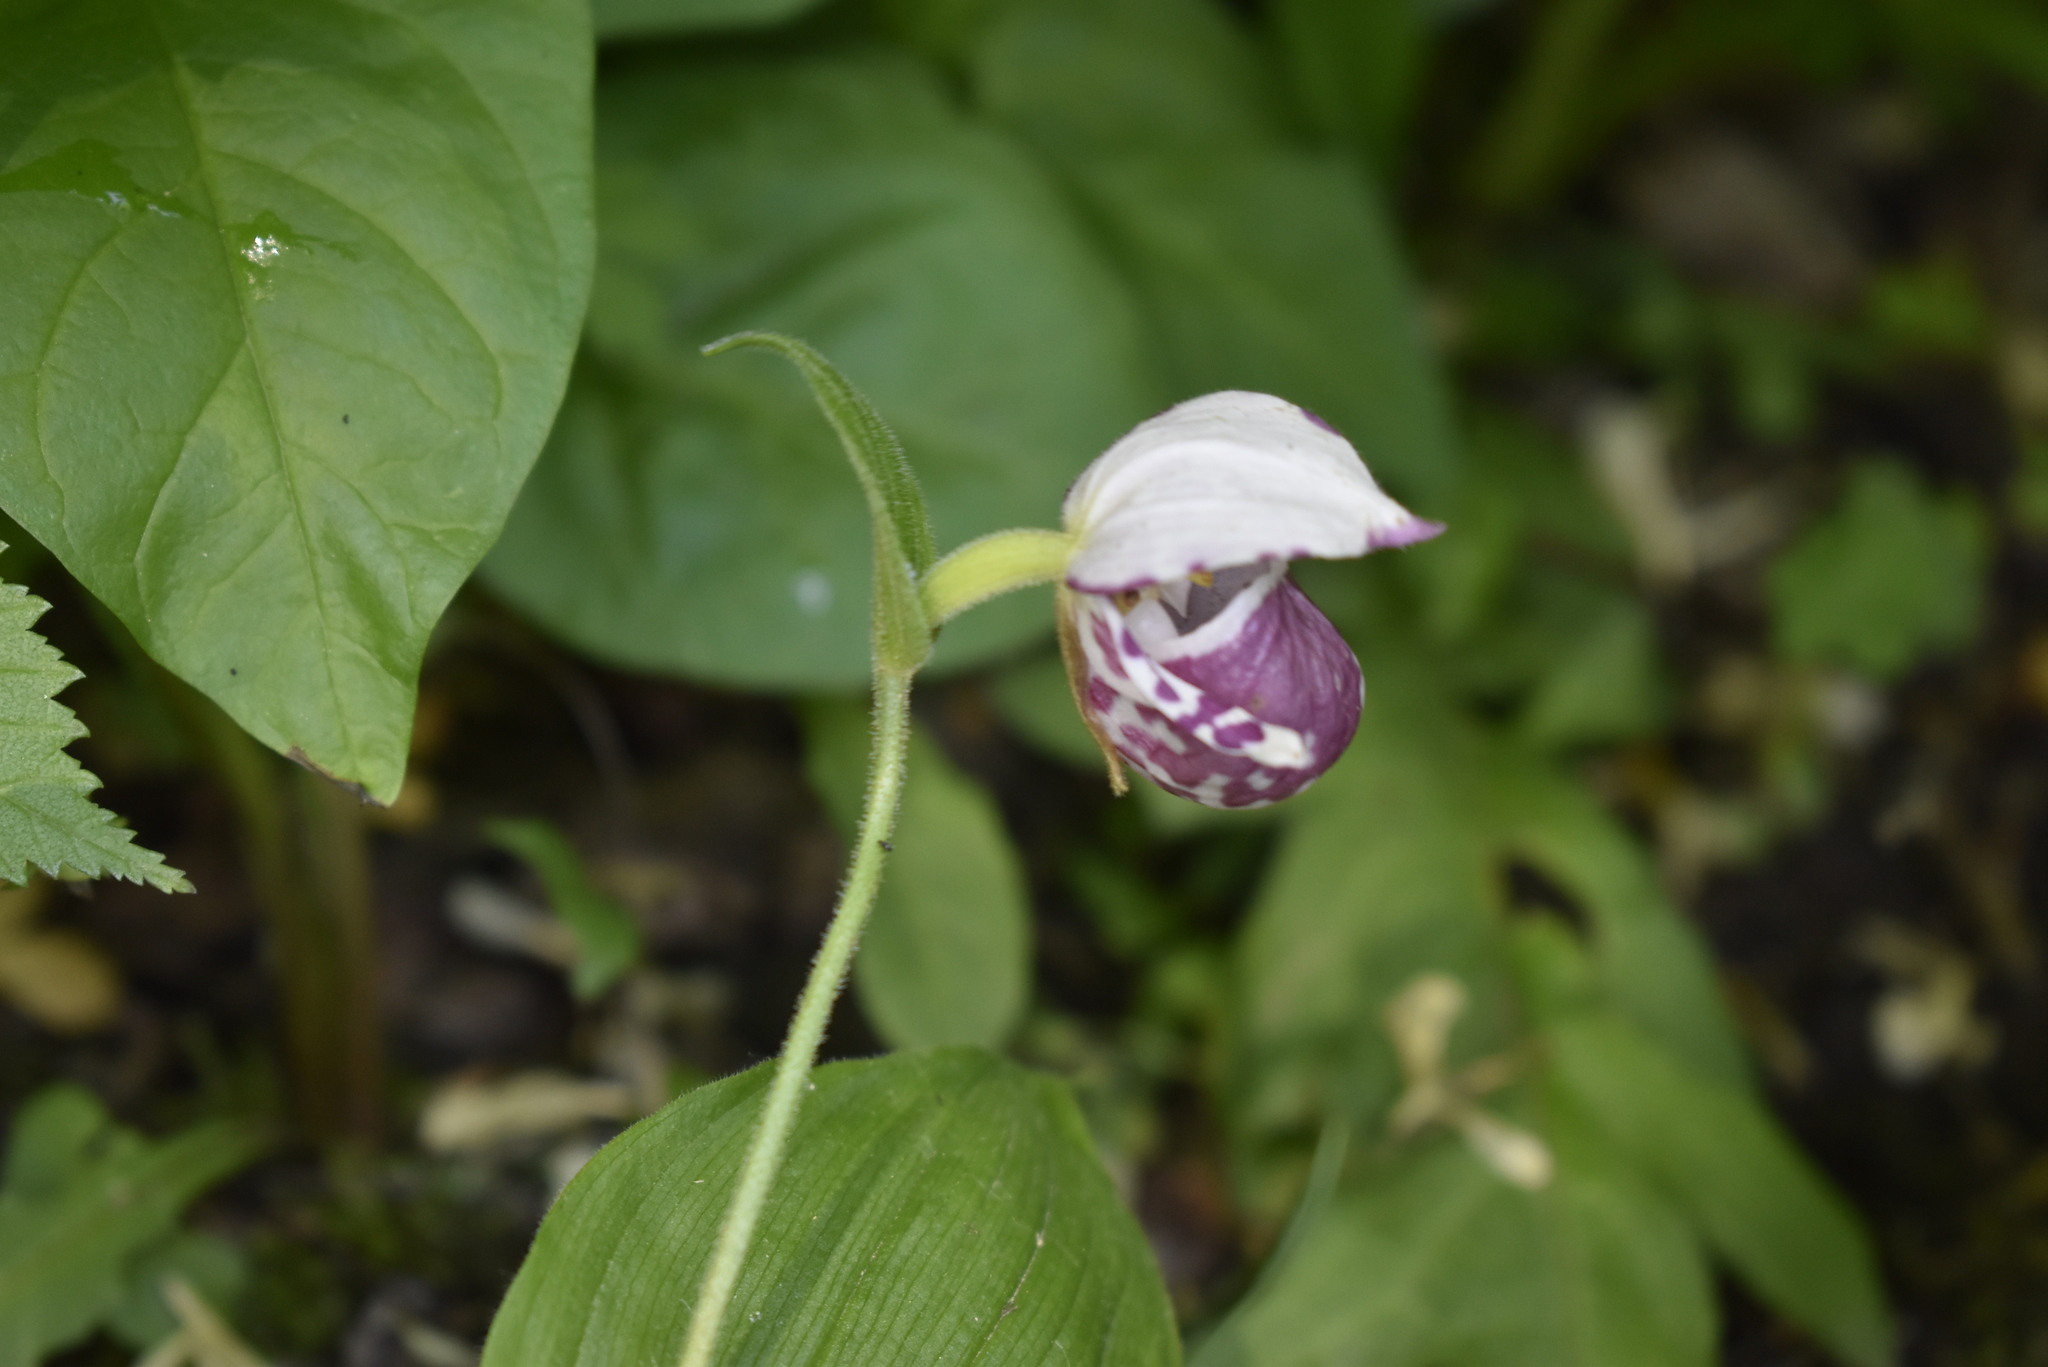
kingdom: Plantae
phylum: Tracheophyta
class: Liliopsida
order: Asparagales
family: Orchidaceae
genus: Cypripedium
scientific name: Cypripedium guttatum
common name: Pink lady slipper
